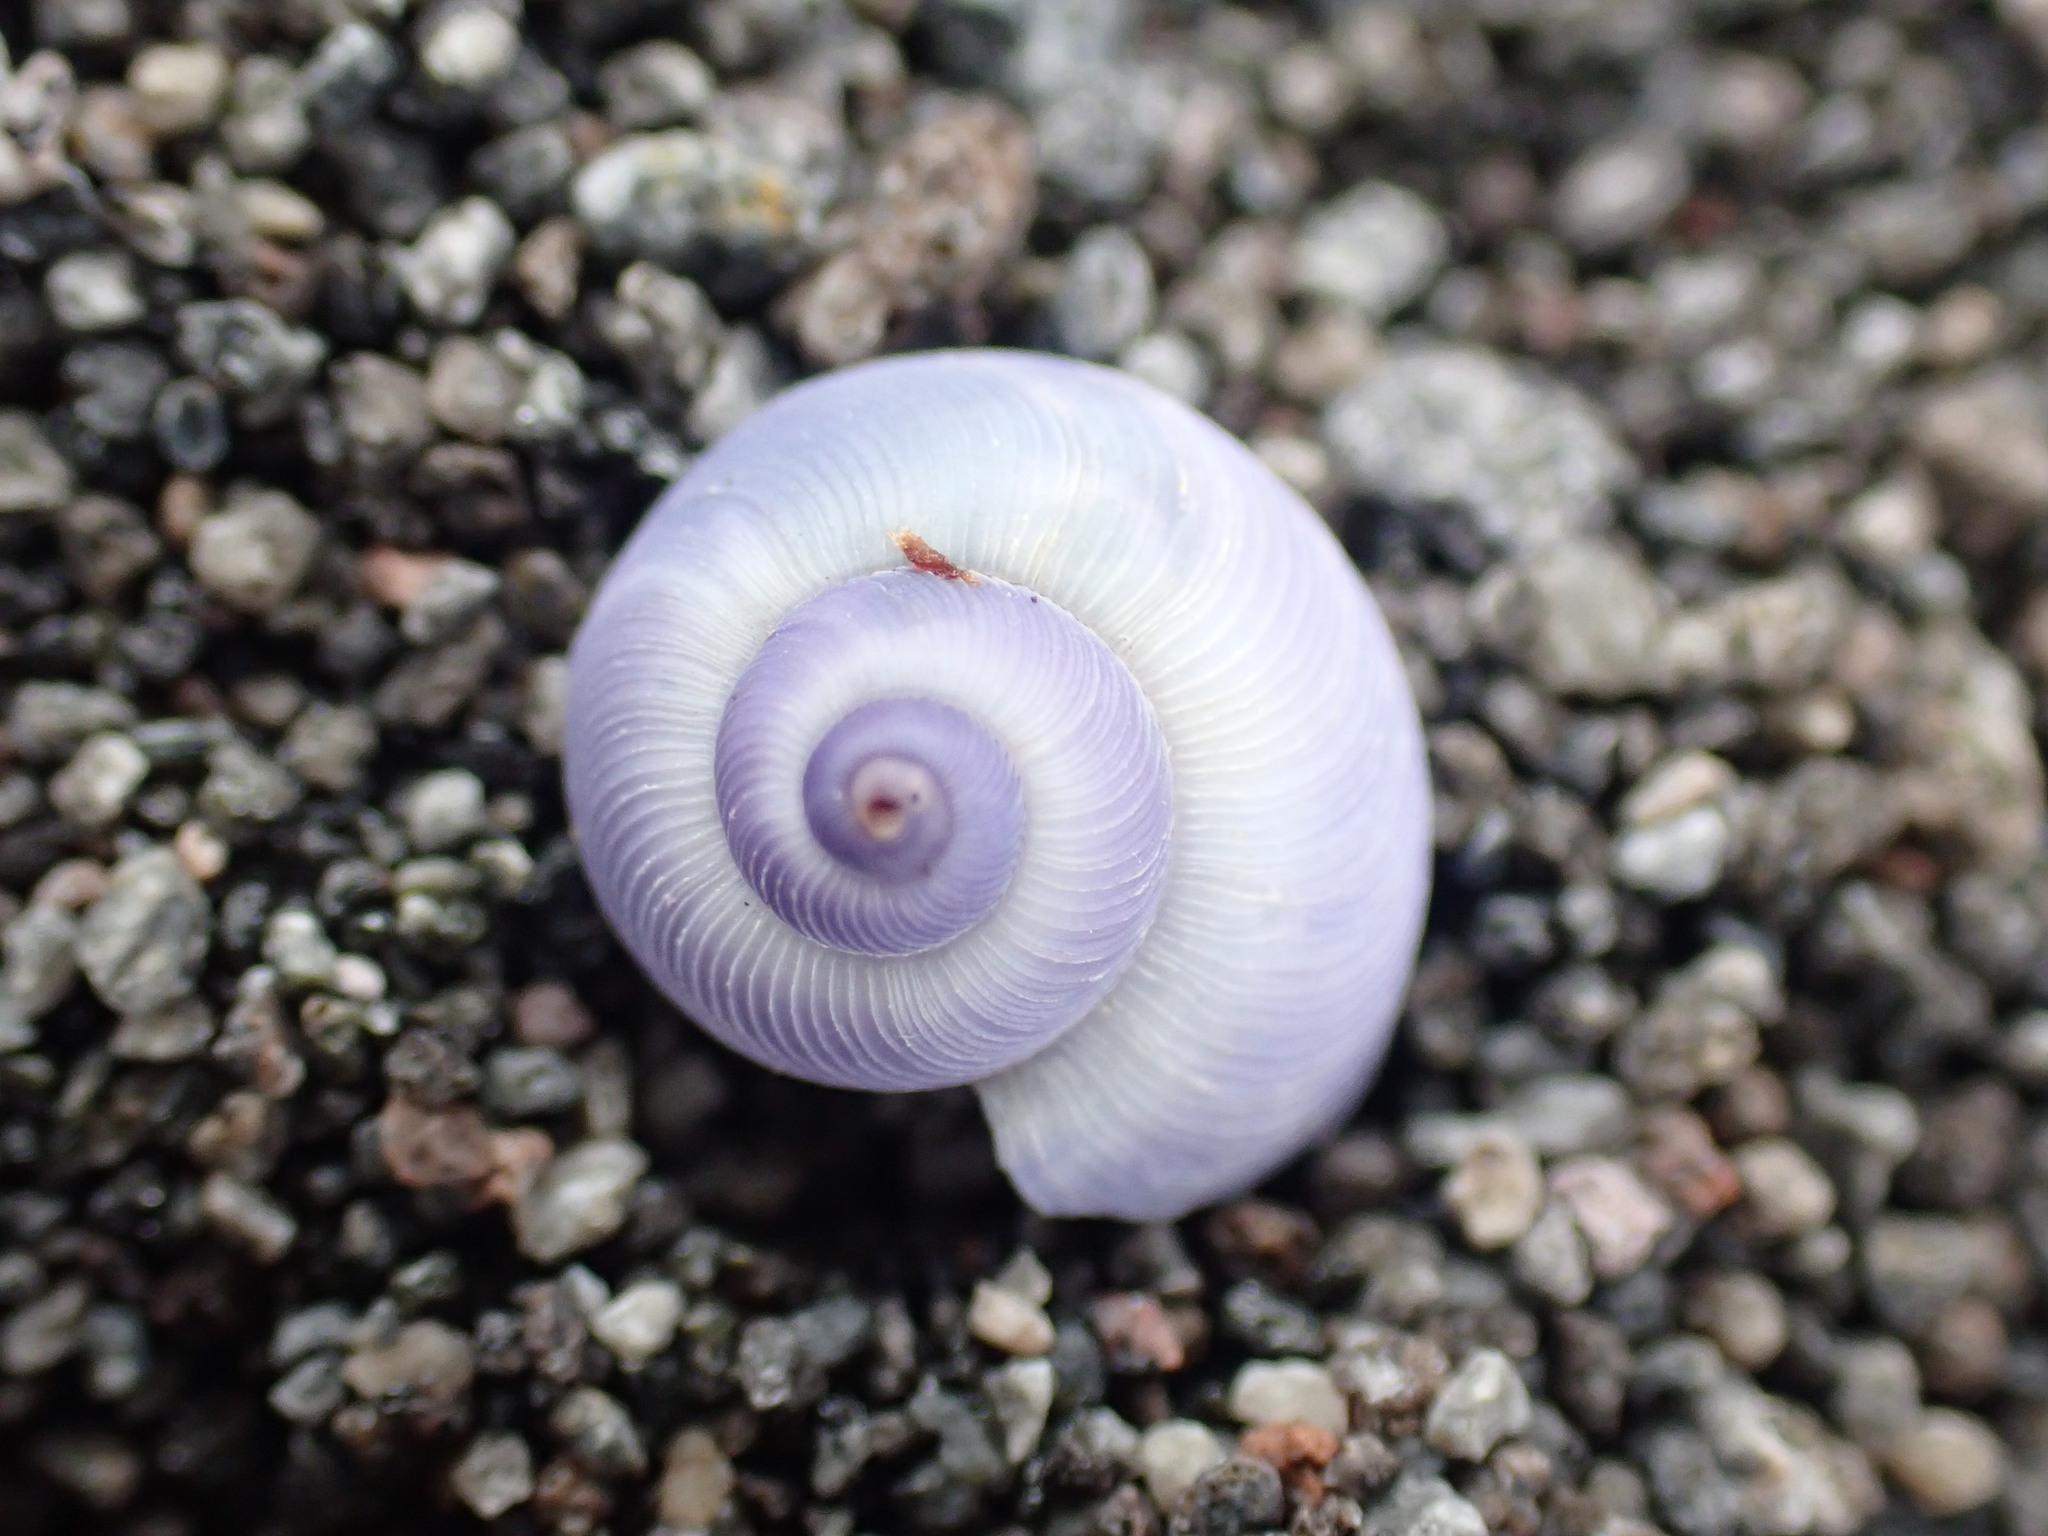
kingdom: Animalia
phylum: Mollusca
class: Gastropoda
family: Epitoniidae
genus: Janthina
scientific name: Janthina exigua
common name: Dwarf janthina
